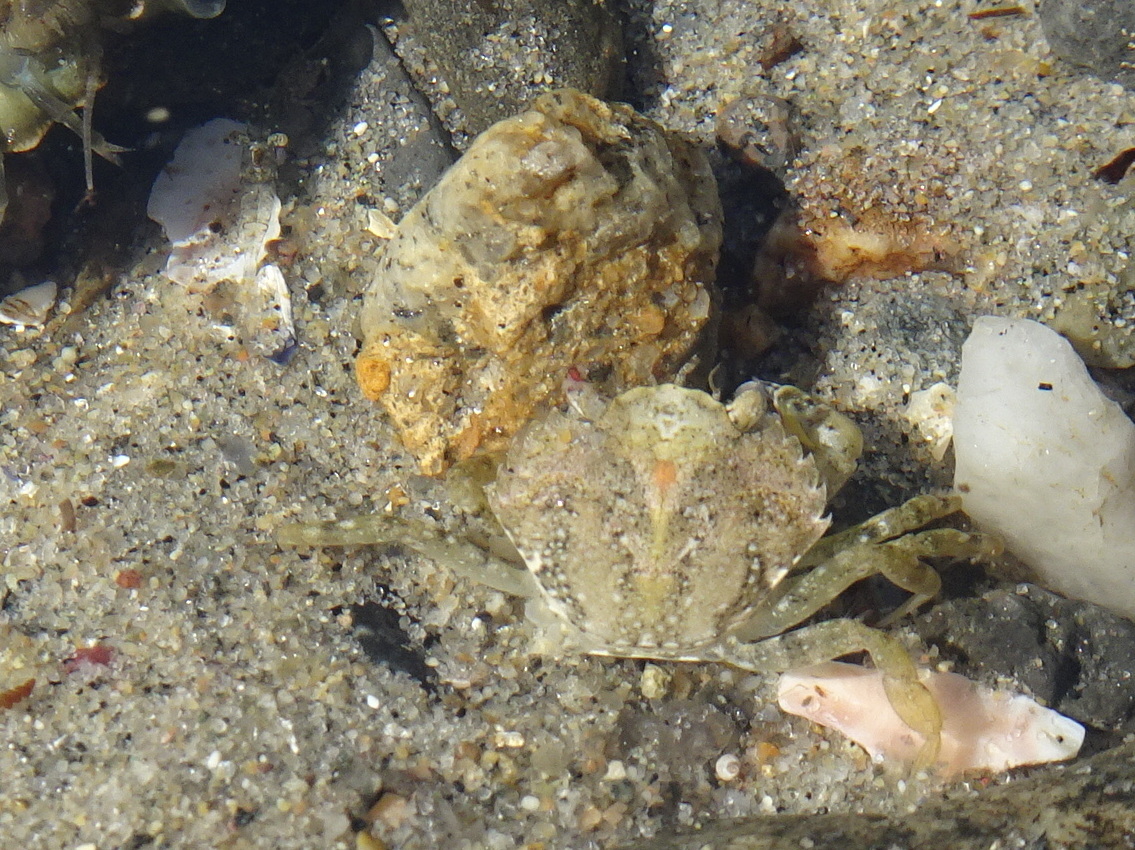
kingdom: Animalia
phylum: Arthropoda
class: Malacostraca
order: Decapoda
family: Carcinidae
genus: Carcinus
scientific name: Carcinus maenas
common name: European green crab
